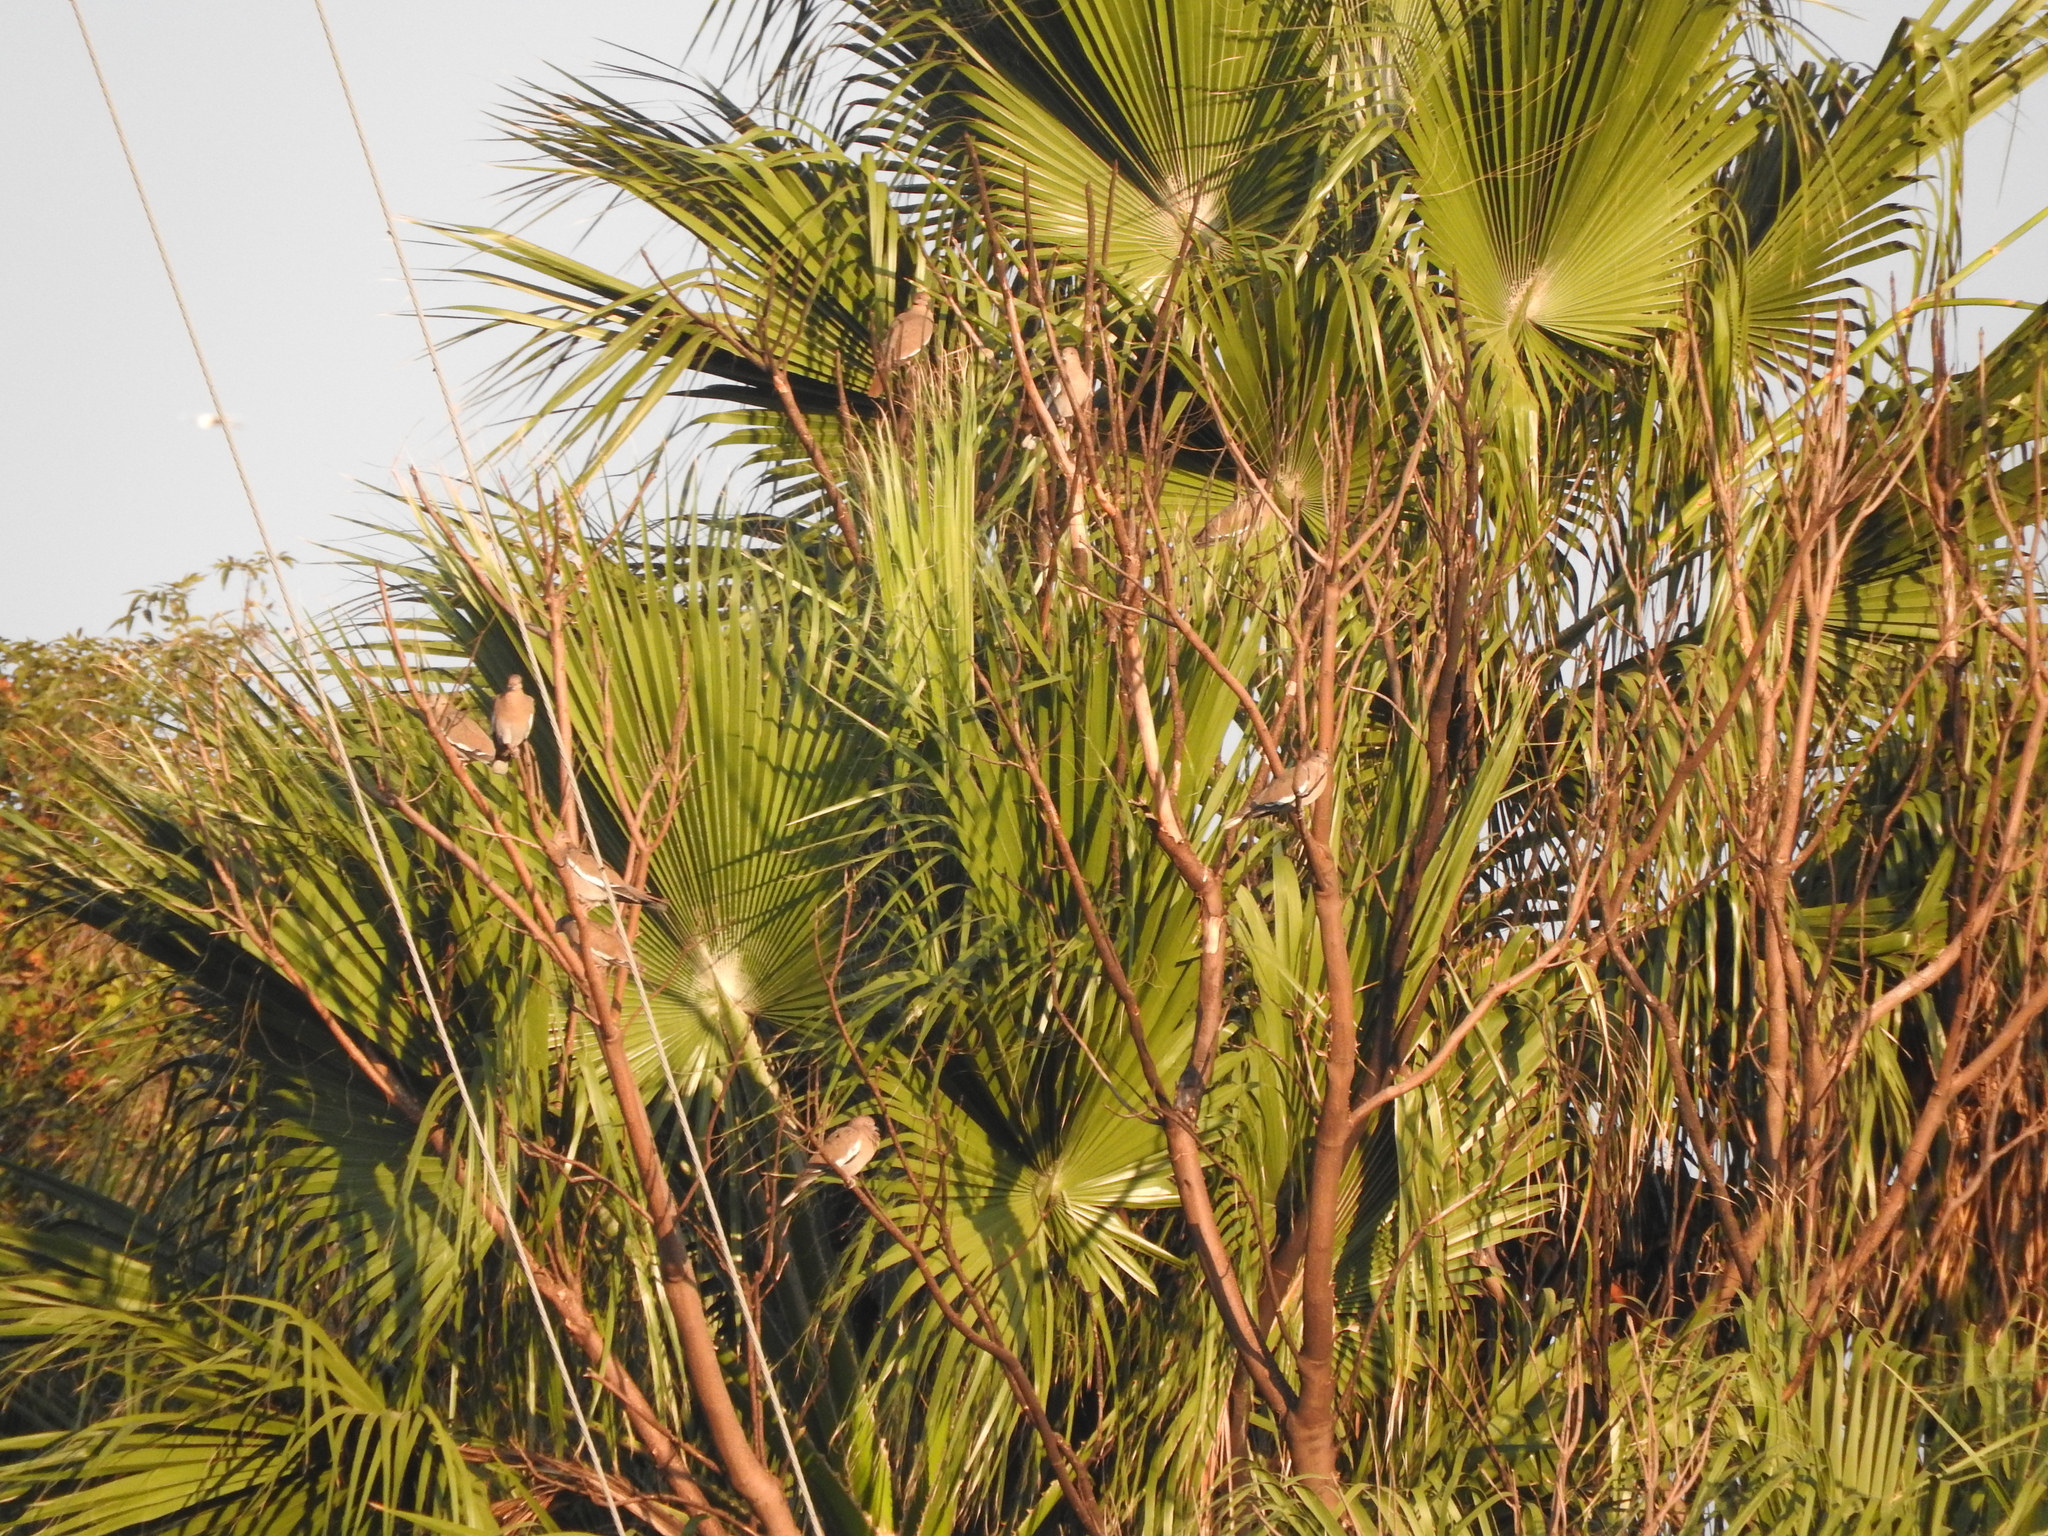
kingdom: Animalia
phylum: Chordata
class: Aves
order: Columbiformes
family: Columbidae
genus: Zenaida
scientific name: Zenaida asiatica
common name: White-winged dove
